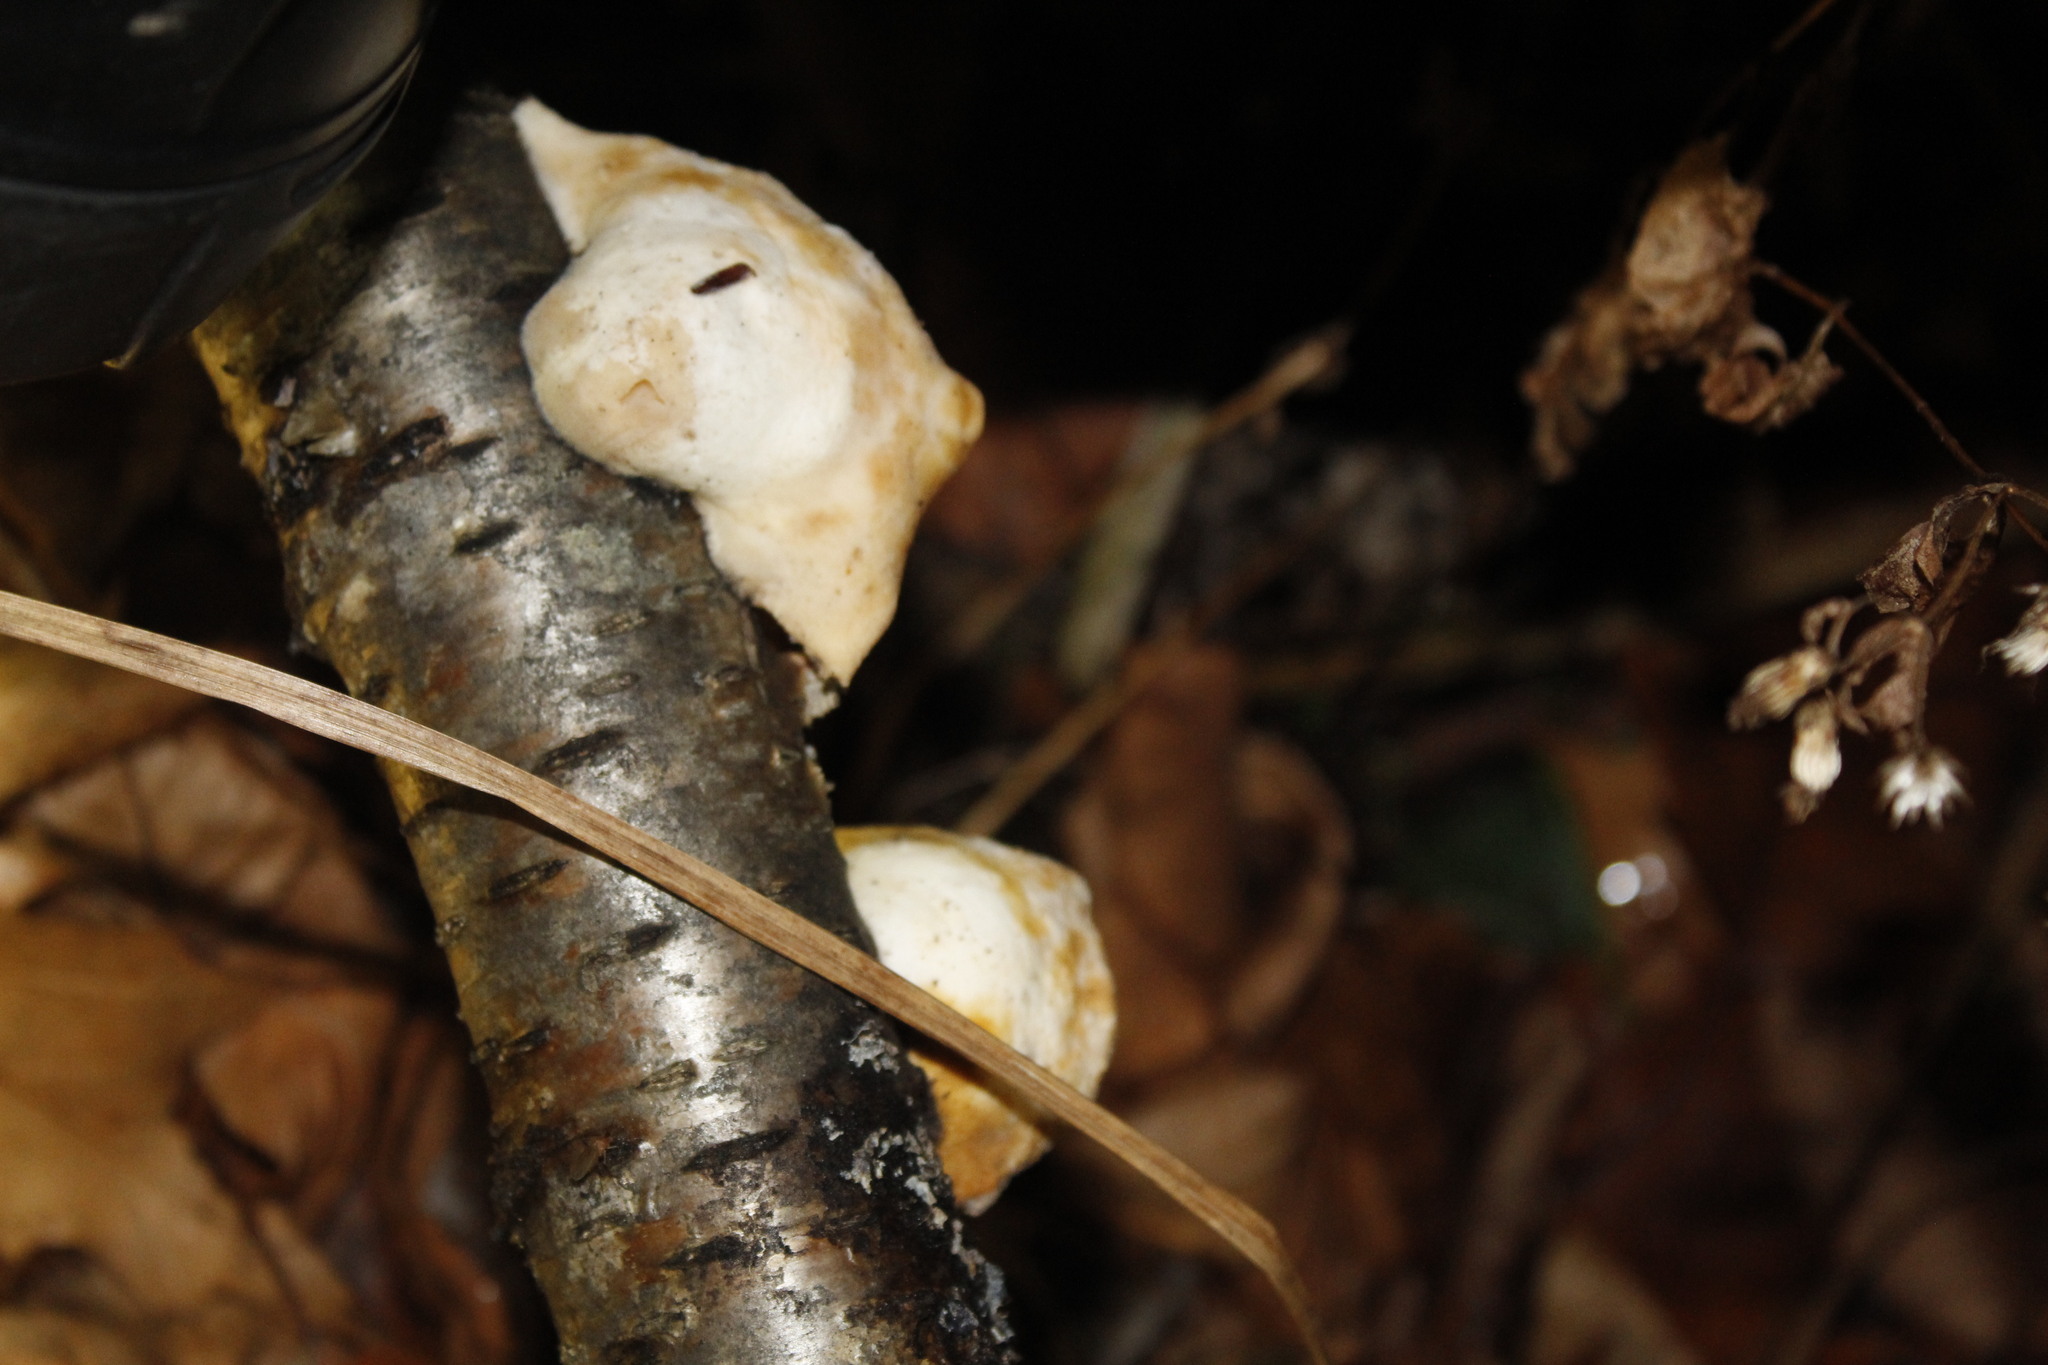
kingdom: Fungi
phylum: Basidiomycota
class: Agaricomycetes
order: Polyporales
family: Incrustoporiaceae
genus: Tyromyces
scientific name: Tyromyces chioneus
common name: White cheese polypore
